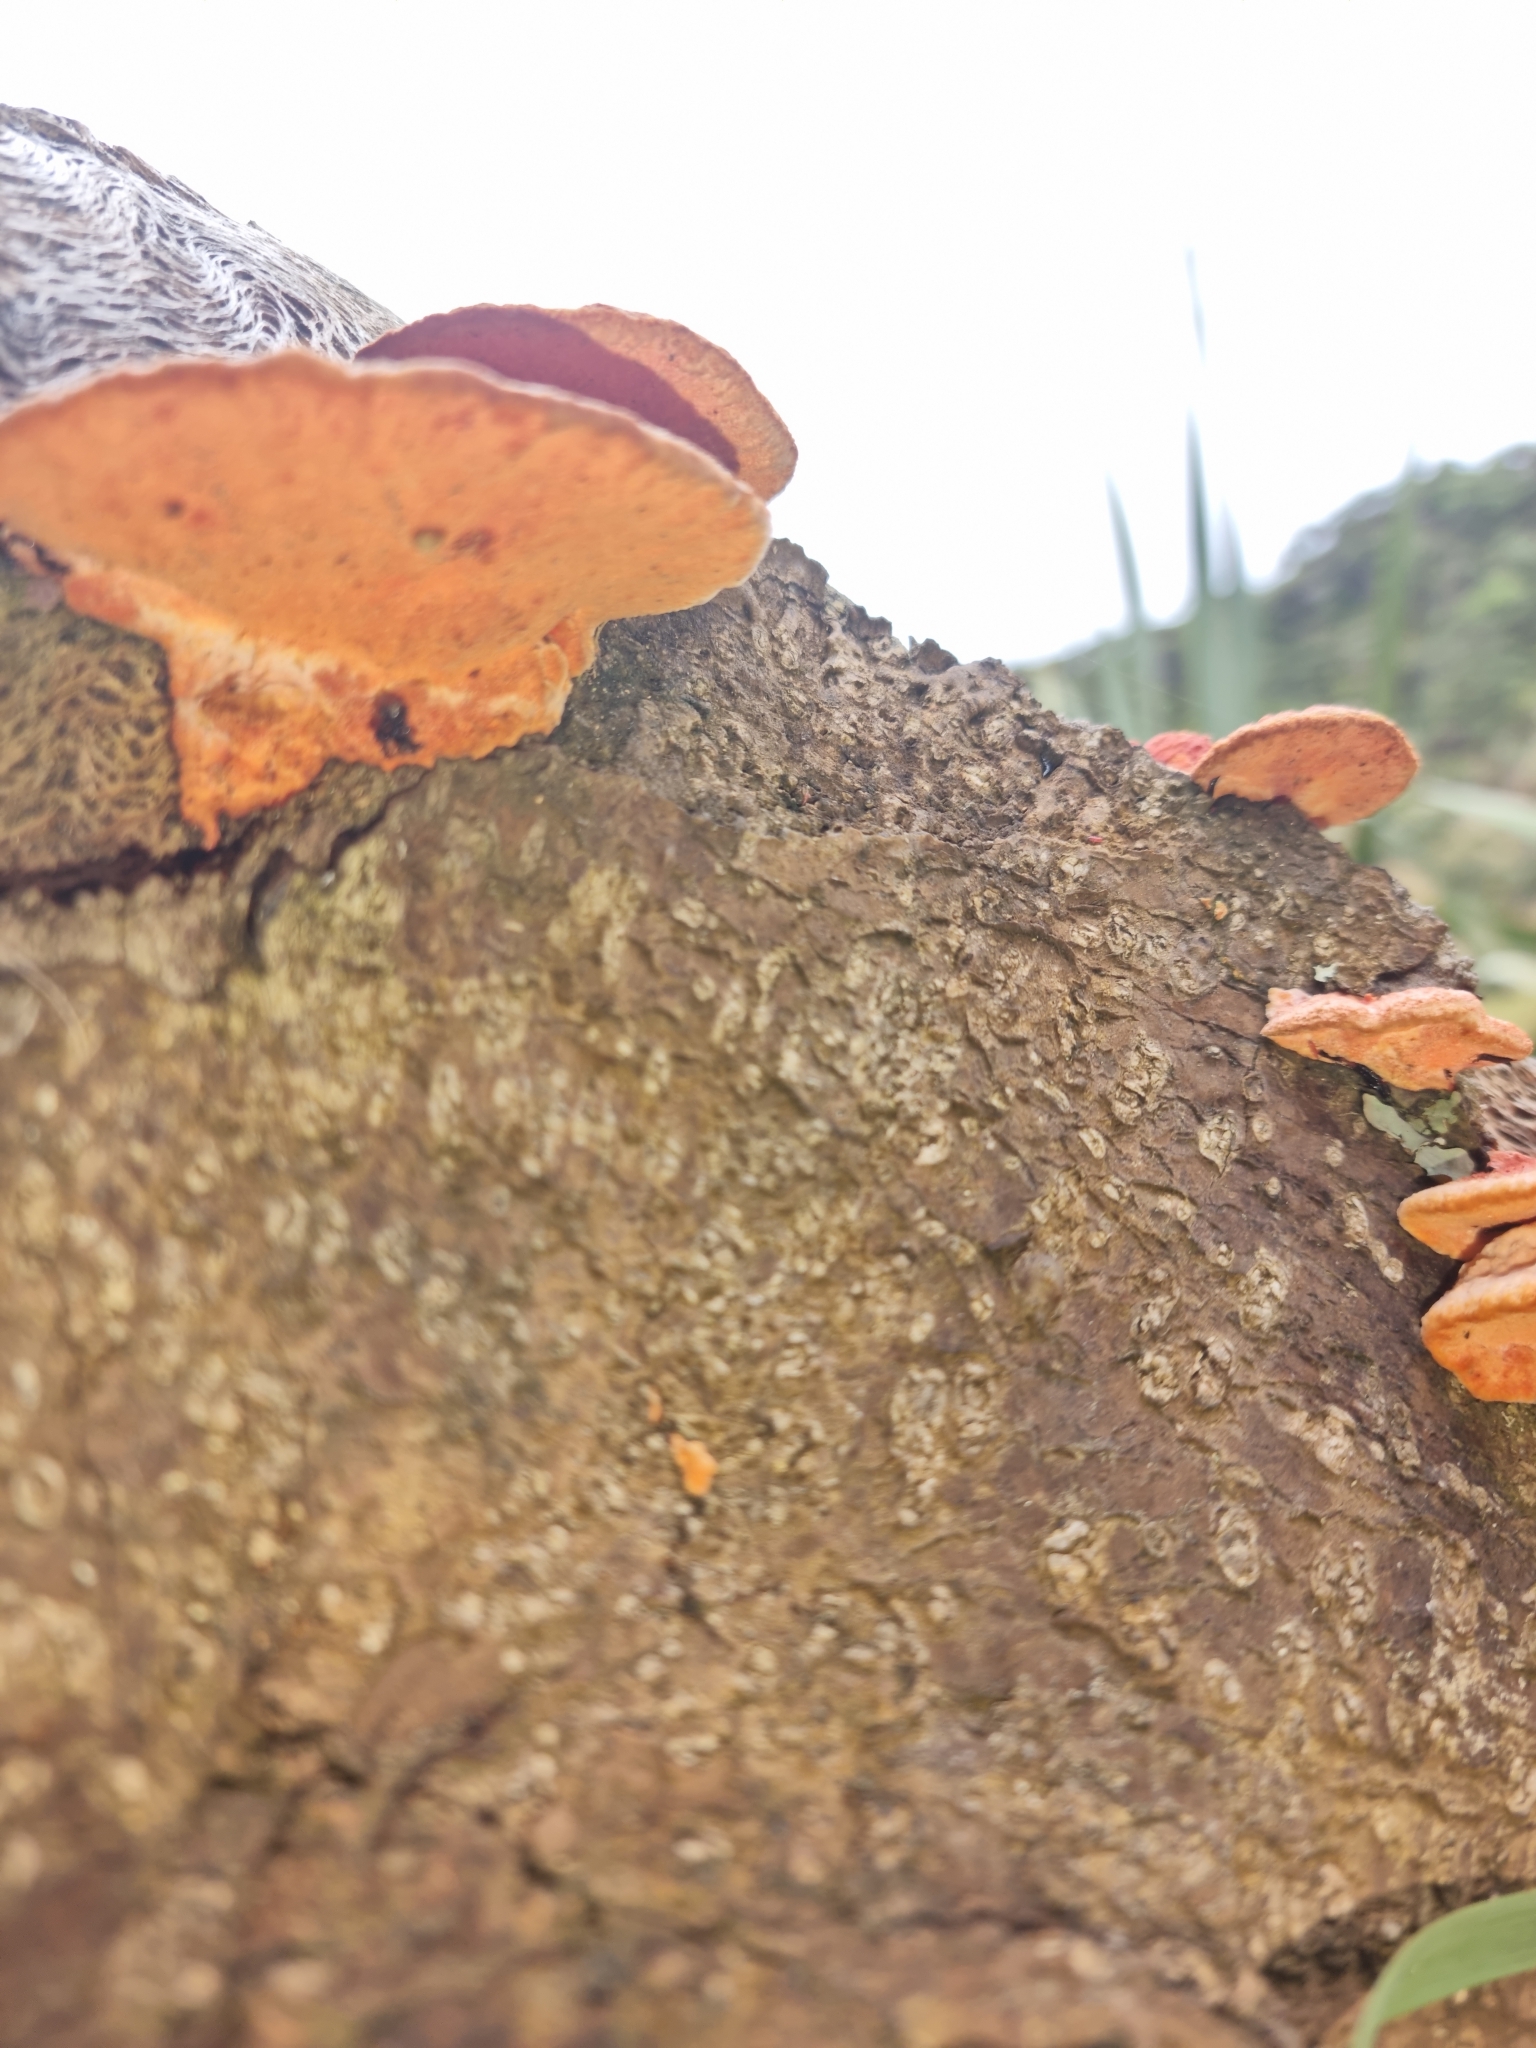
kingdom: Fungi
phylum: Basidiomycota
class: Agaricomycetes
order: Polyporales
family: Polyporaceae
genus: Trametes
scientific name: Trametes coccinea
